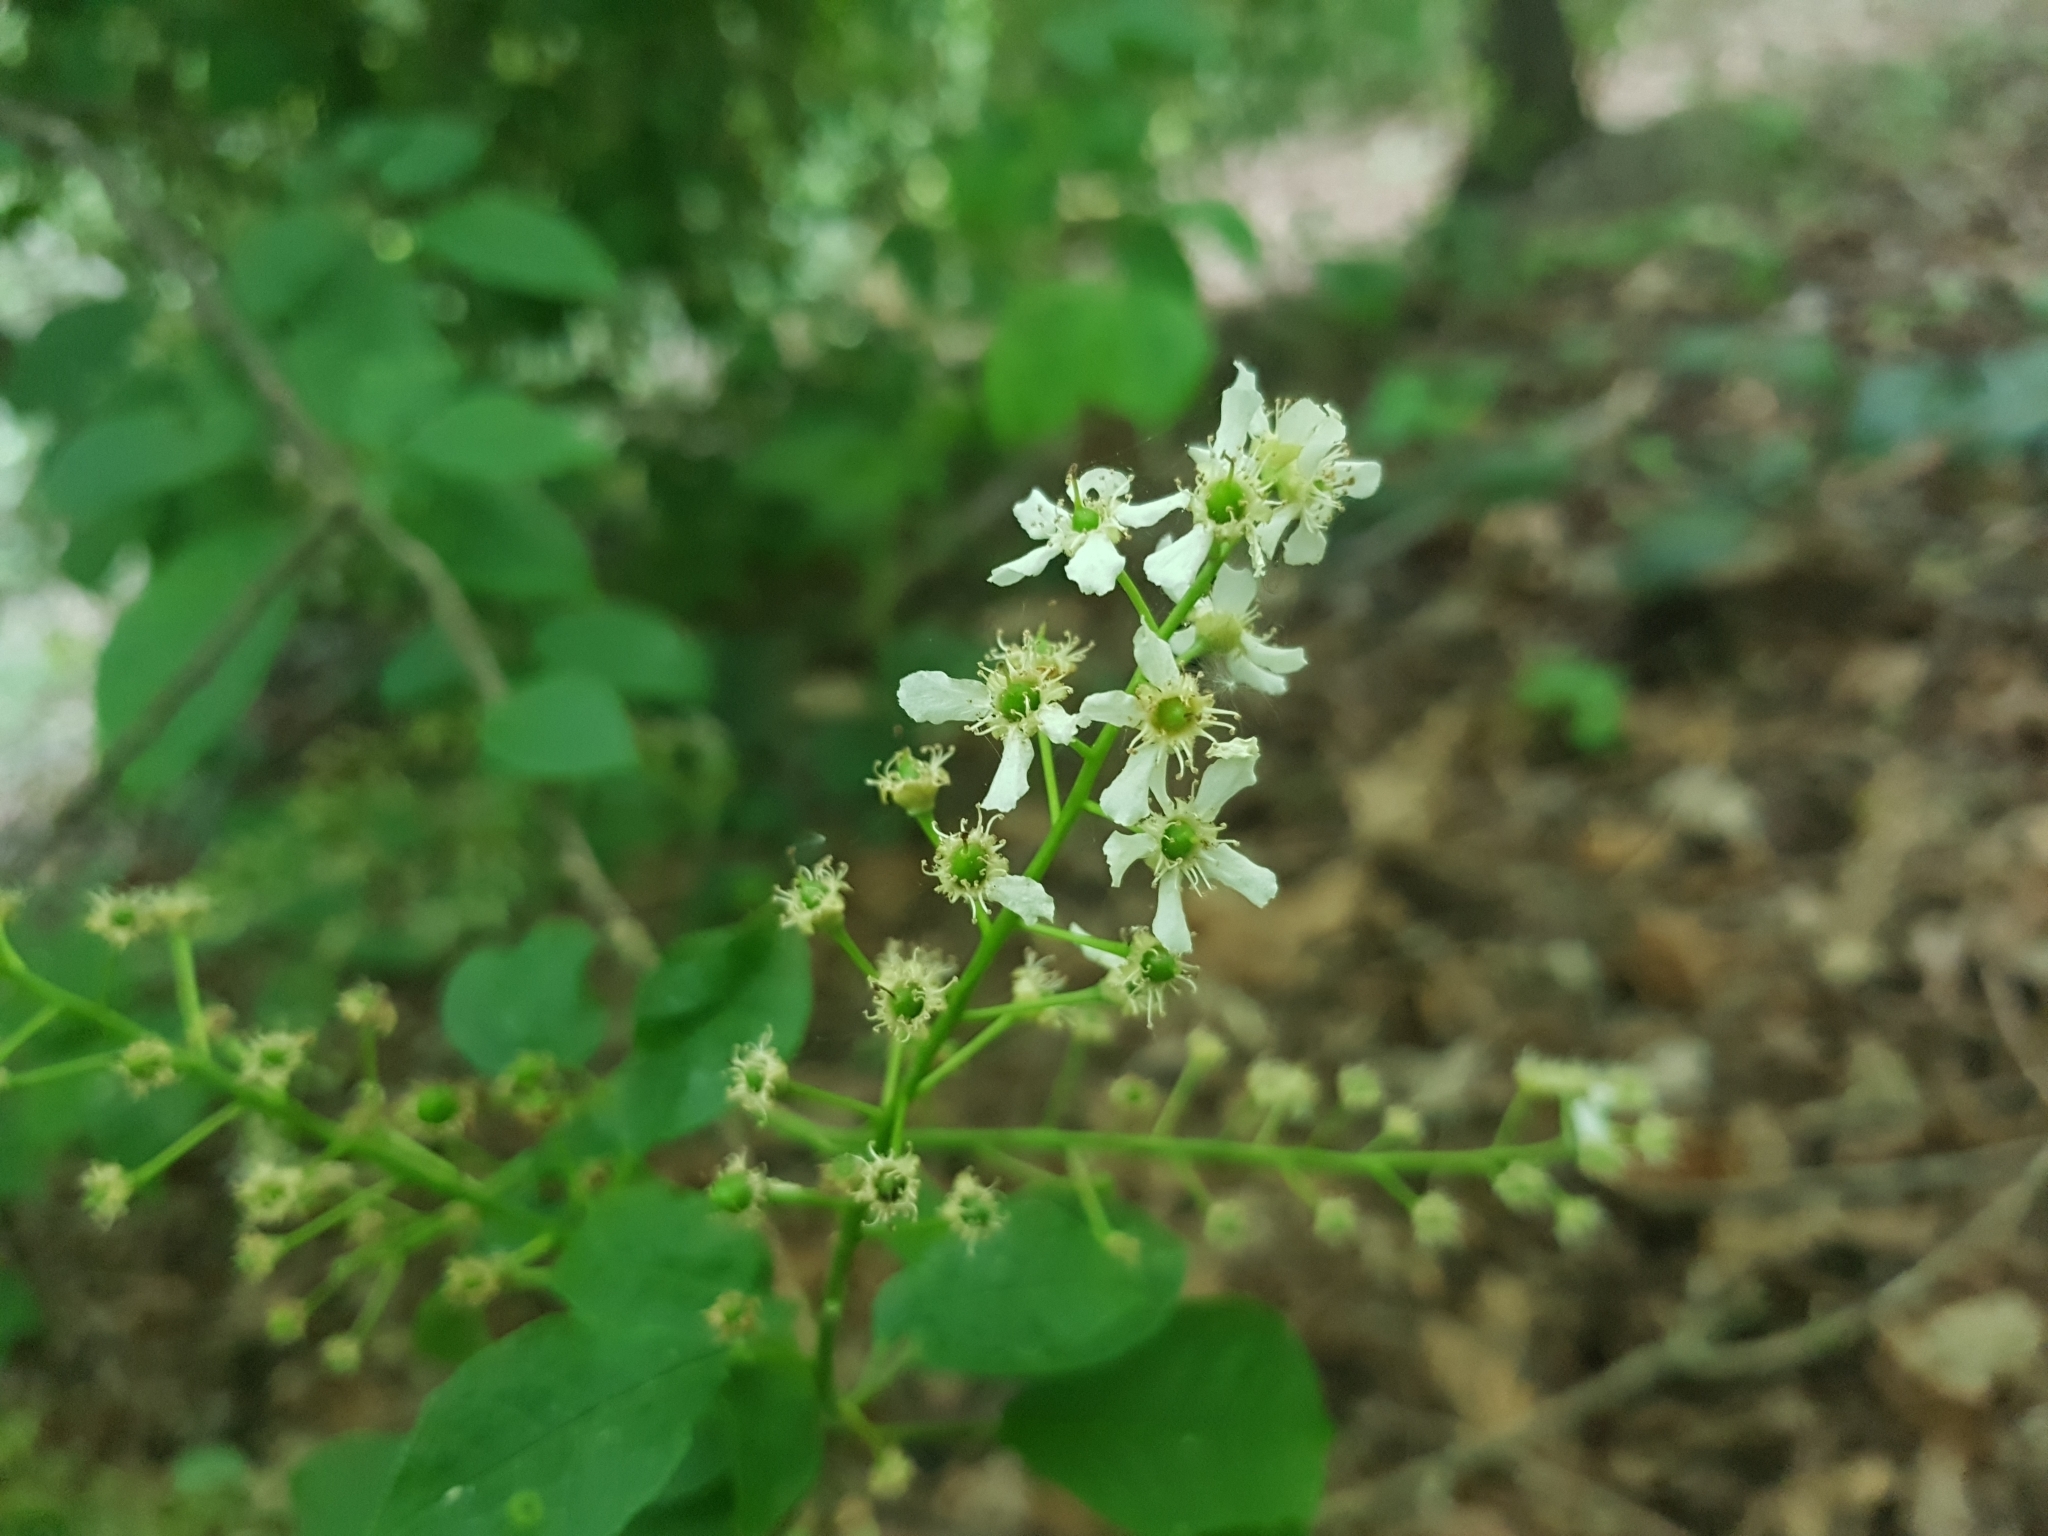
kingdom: Plantae
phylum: Tracheophyta
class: Magnoliopsida
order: Rosales
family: Rosaceae
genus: Prunus
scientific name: Prunus padus
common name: Bird cherry
